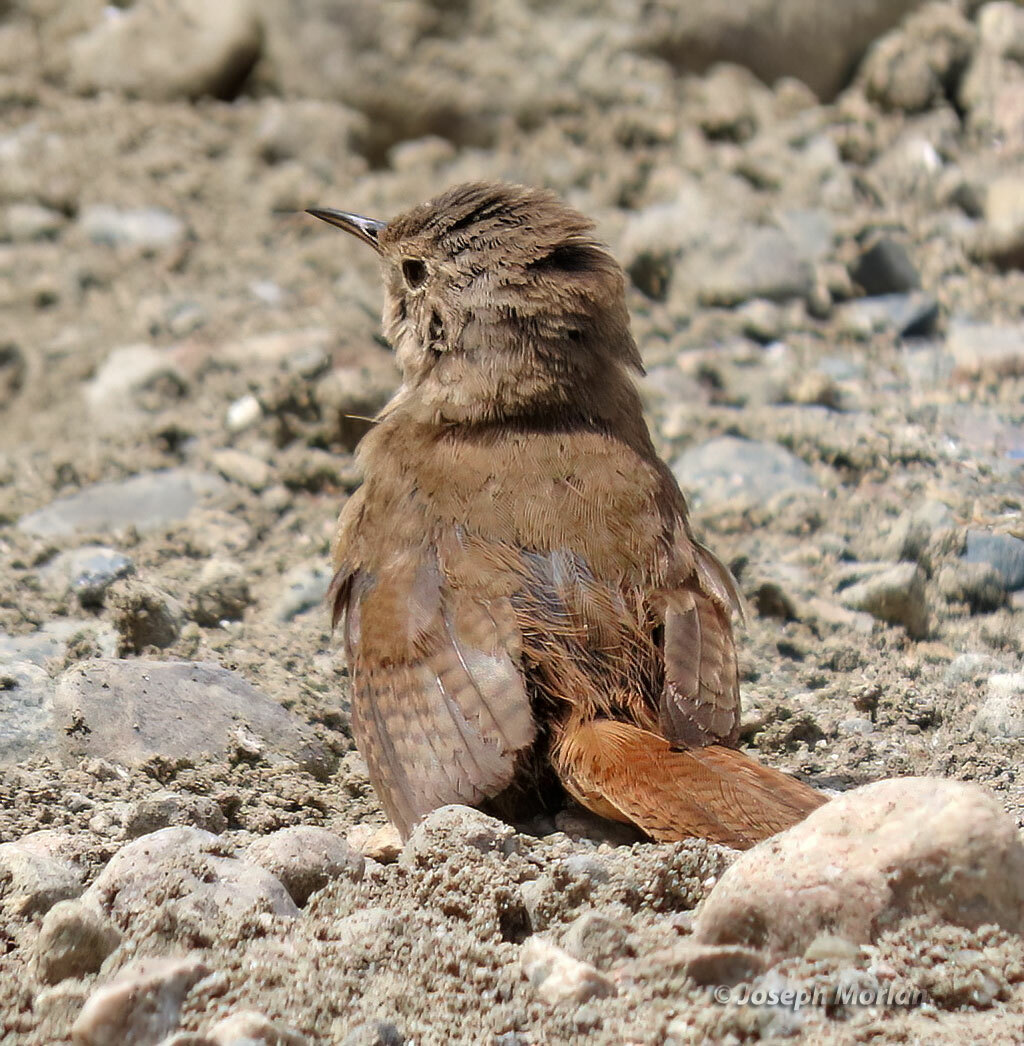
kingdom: Animalia
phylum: Chordata
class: Aves
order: Passeriformes
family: Troglodytidae
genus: Troglodytes
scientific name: Troglodytes aedon
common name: House wren
